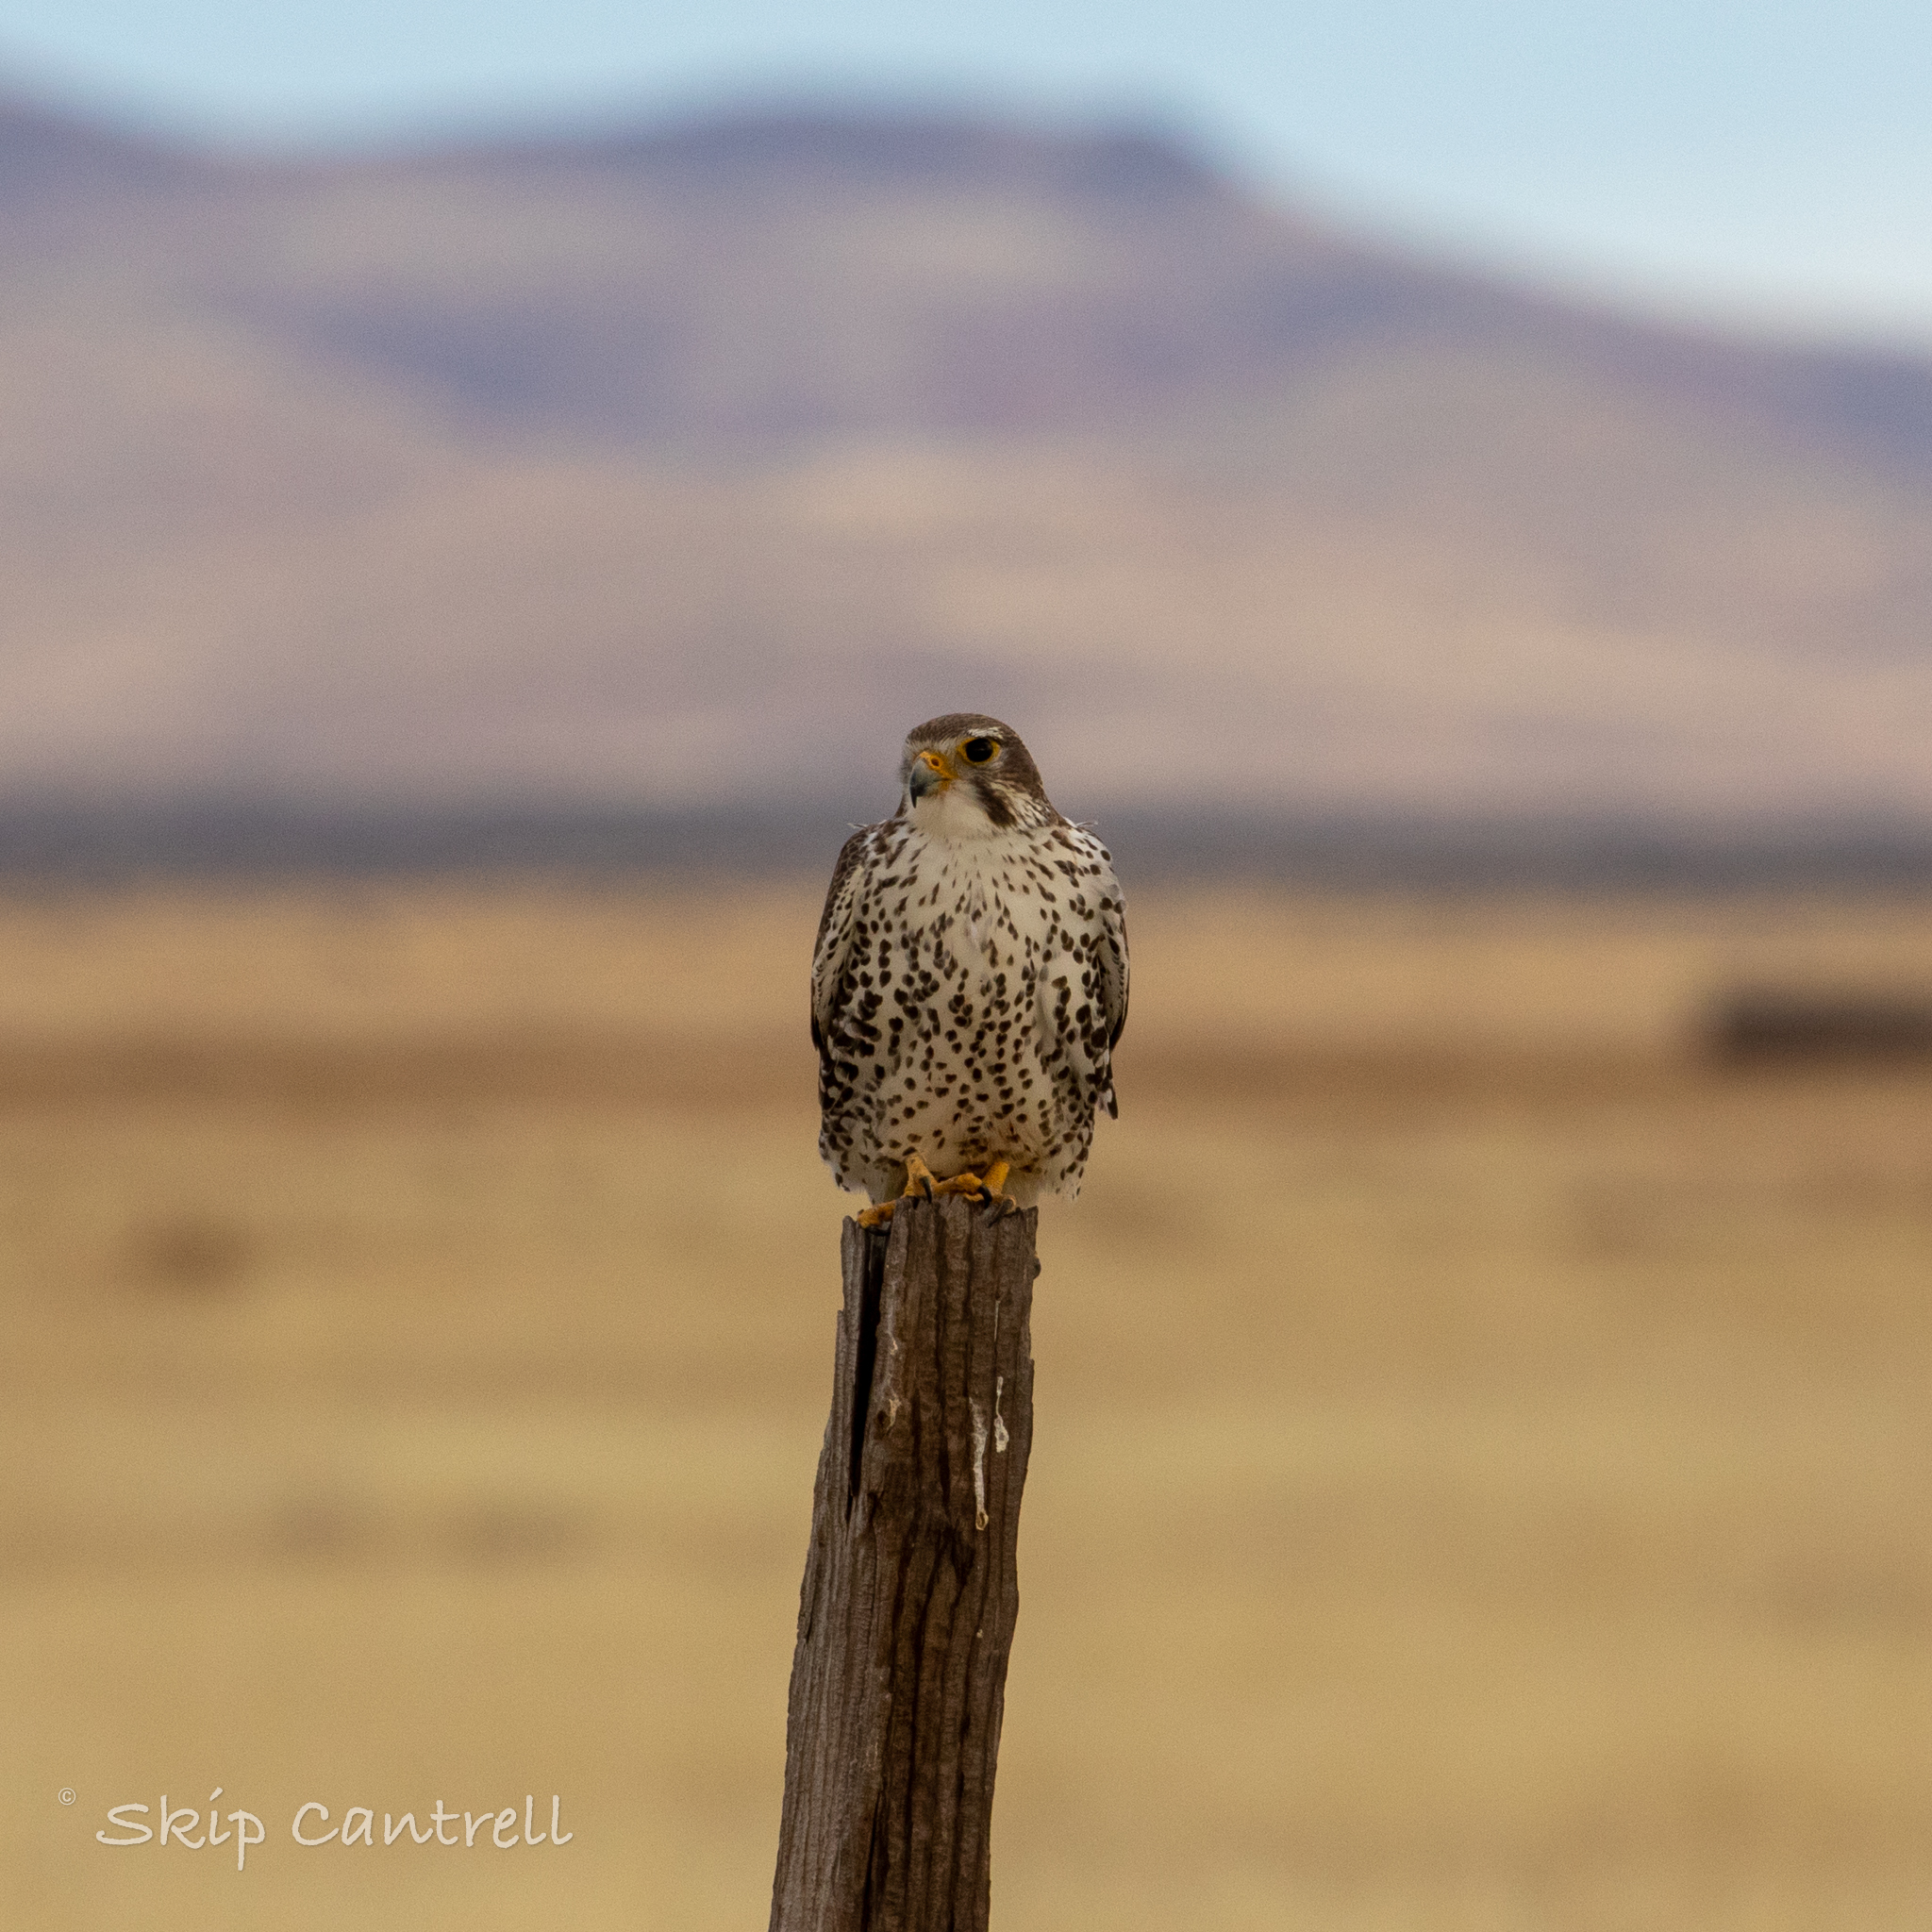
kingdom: Animalia
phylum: Chordata
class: Aves
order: Falconiformes
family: Falconidae
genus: Falco
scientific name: Falco mexicanus
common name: Prairie falcon
